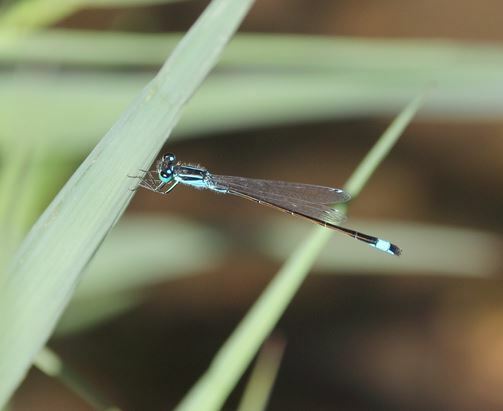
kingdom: Animalia
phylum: Arthropoda
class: Insecta
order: Odonata
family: Coenagrionidae
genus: Ischnura
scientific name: Ischnura elegans
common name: Blue-tailed damselfly
